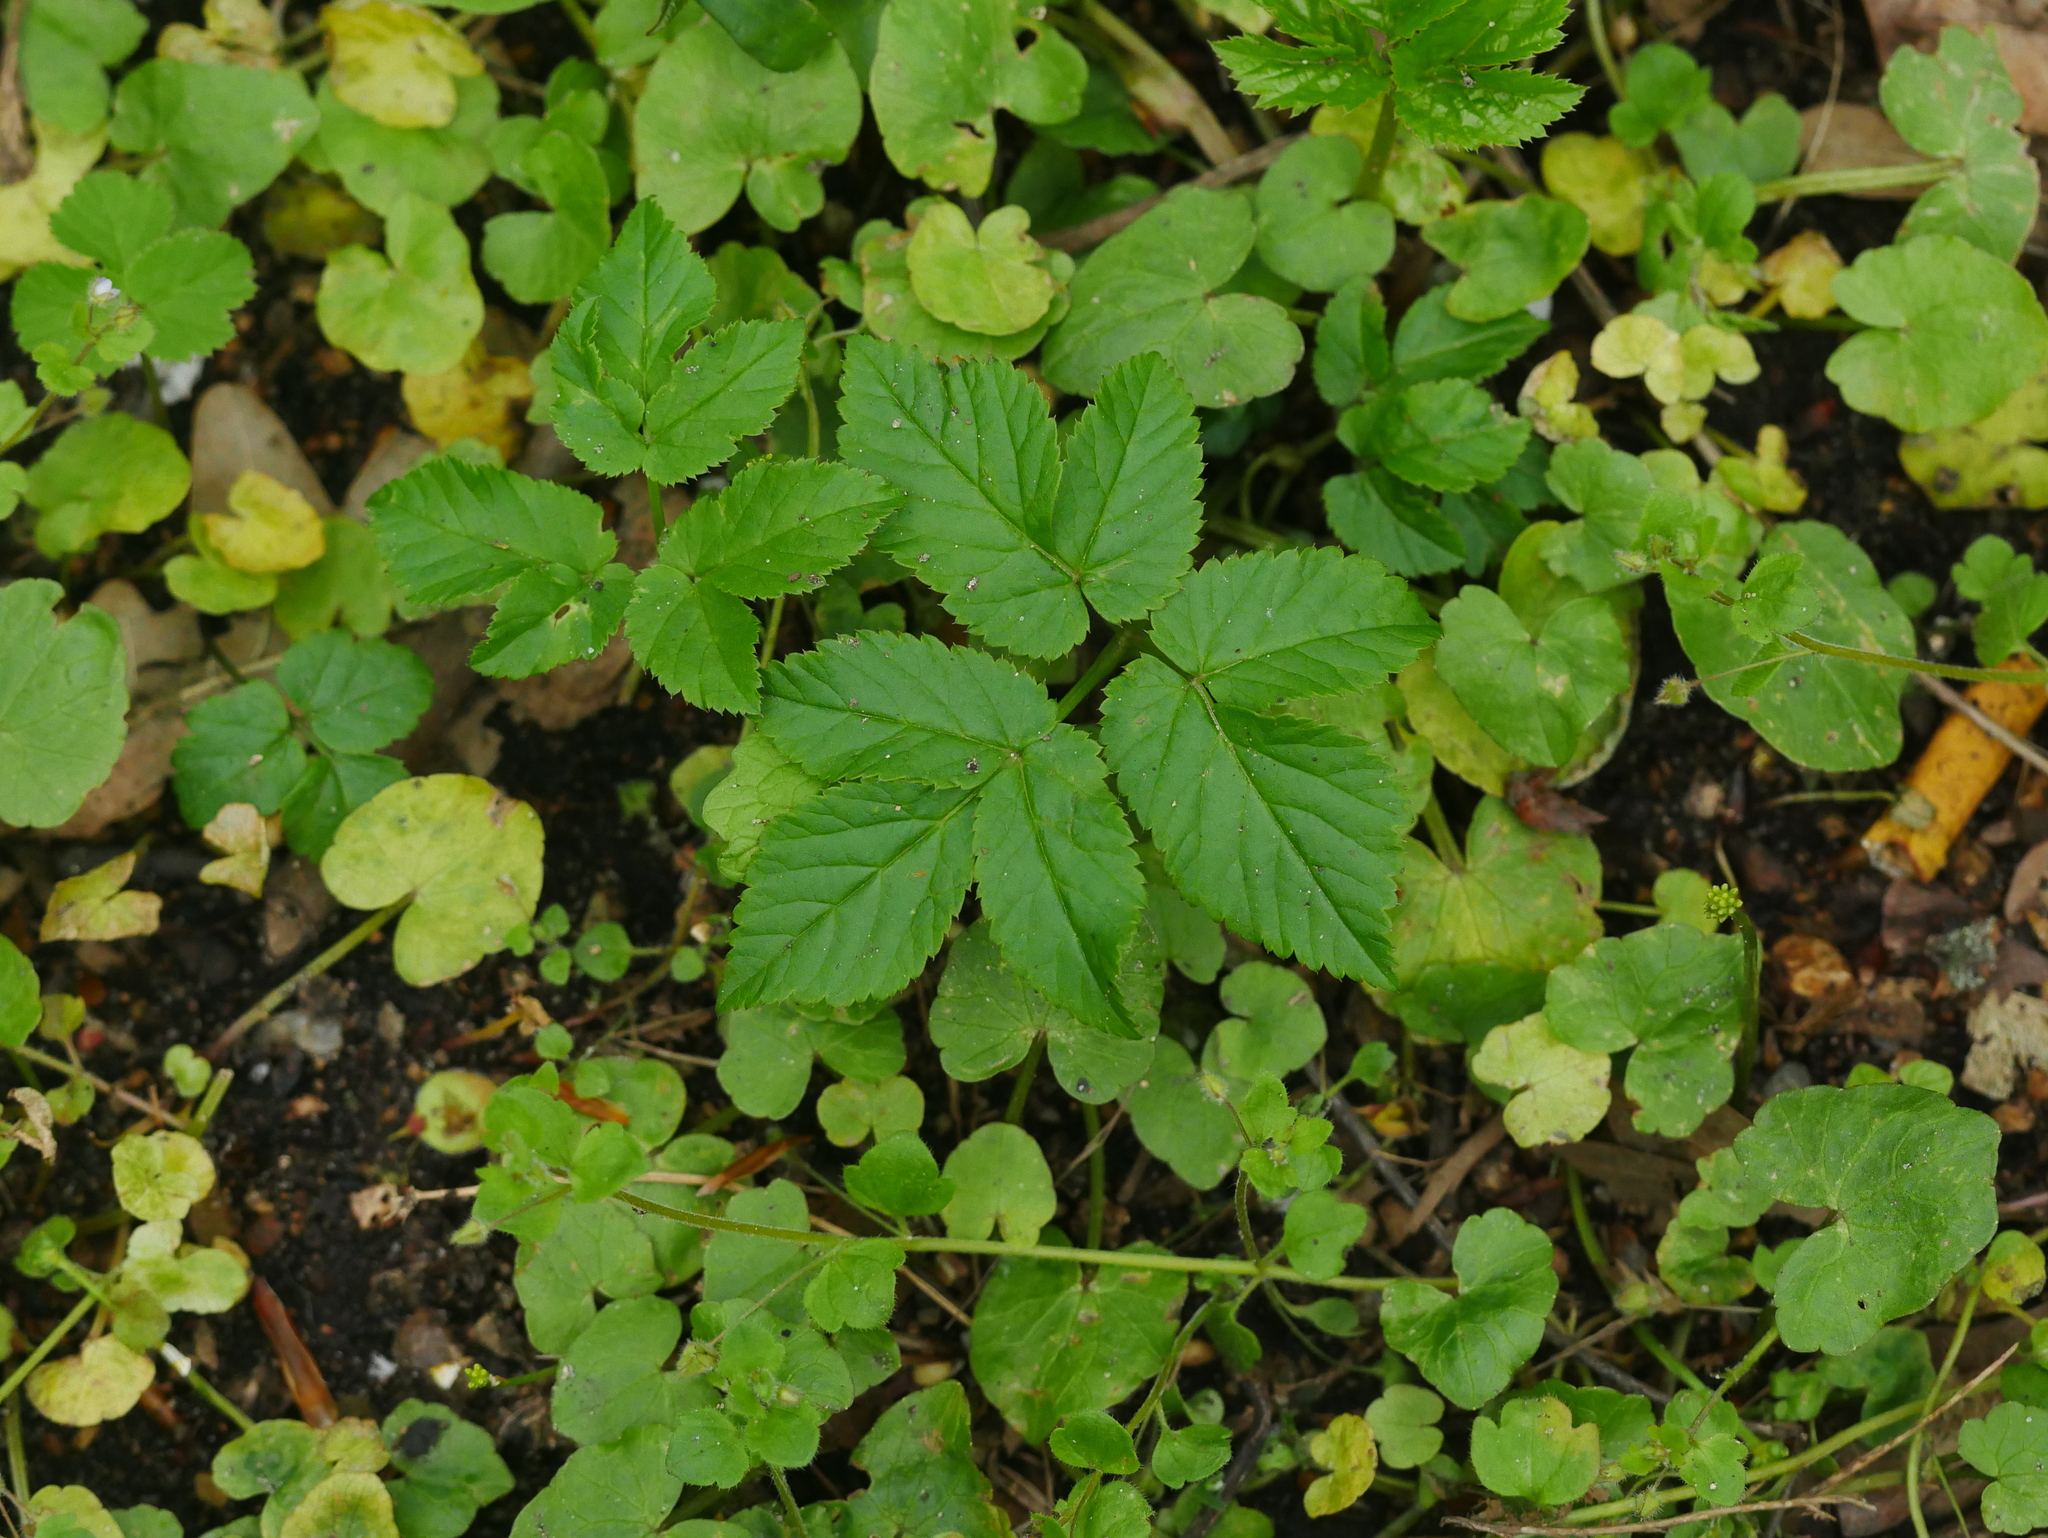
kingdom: Plantae
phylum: Tracheophyta
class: Magnoliopsida
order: Apiales
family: Apiaceae
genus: Aegopodium
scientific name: Aegopodium podagraria
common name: Ground-elder
